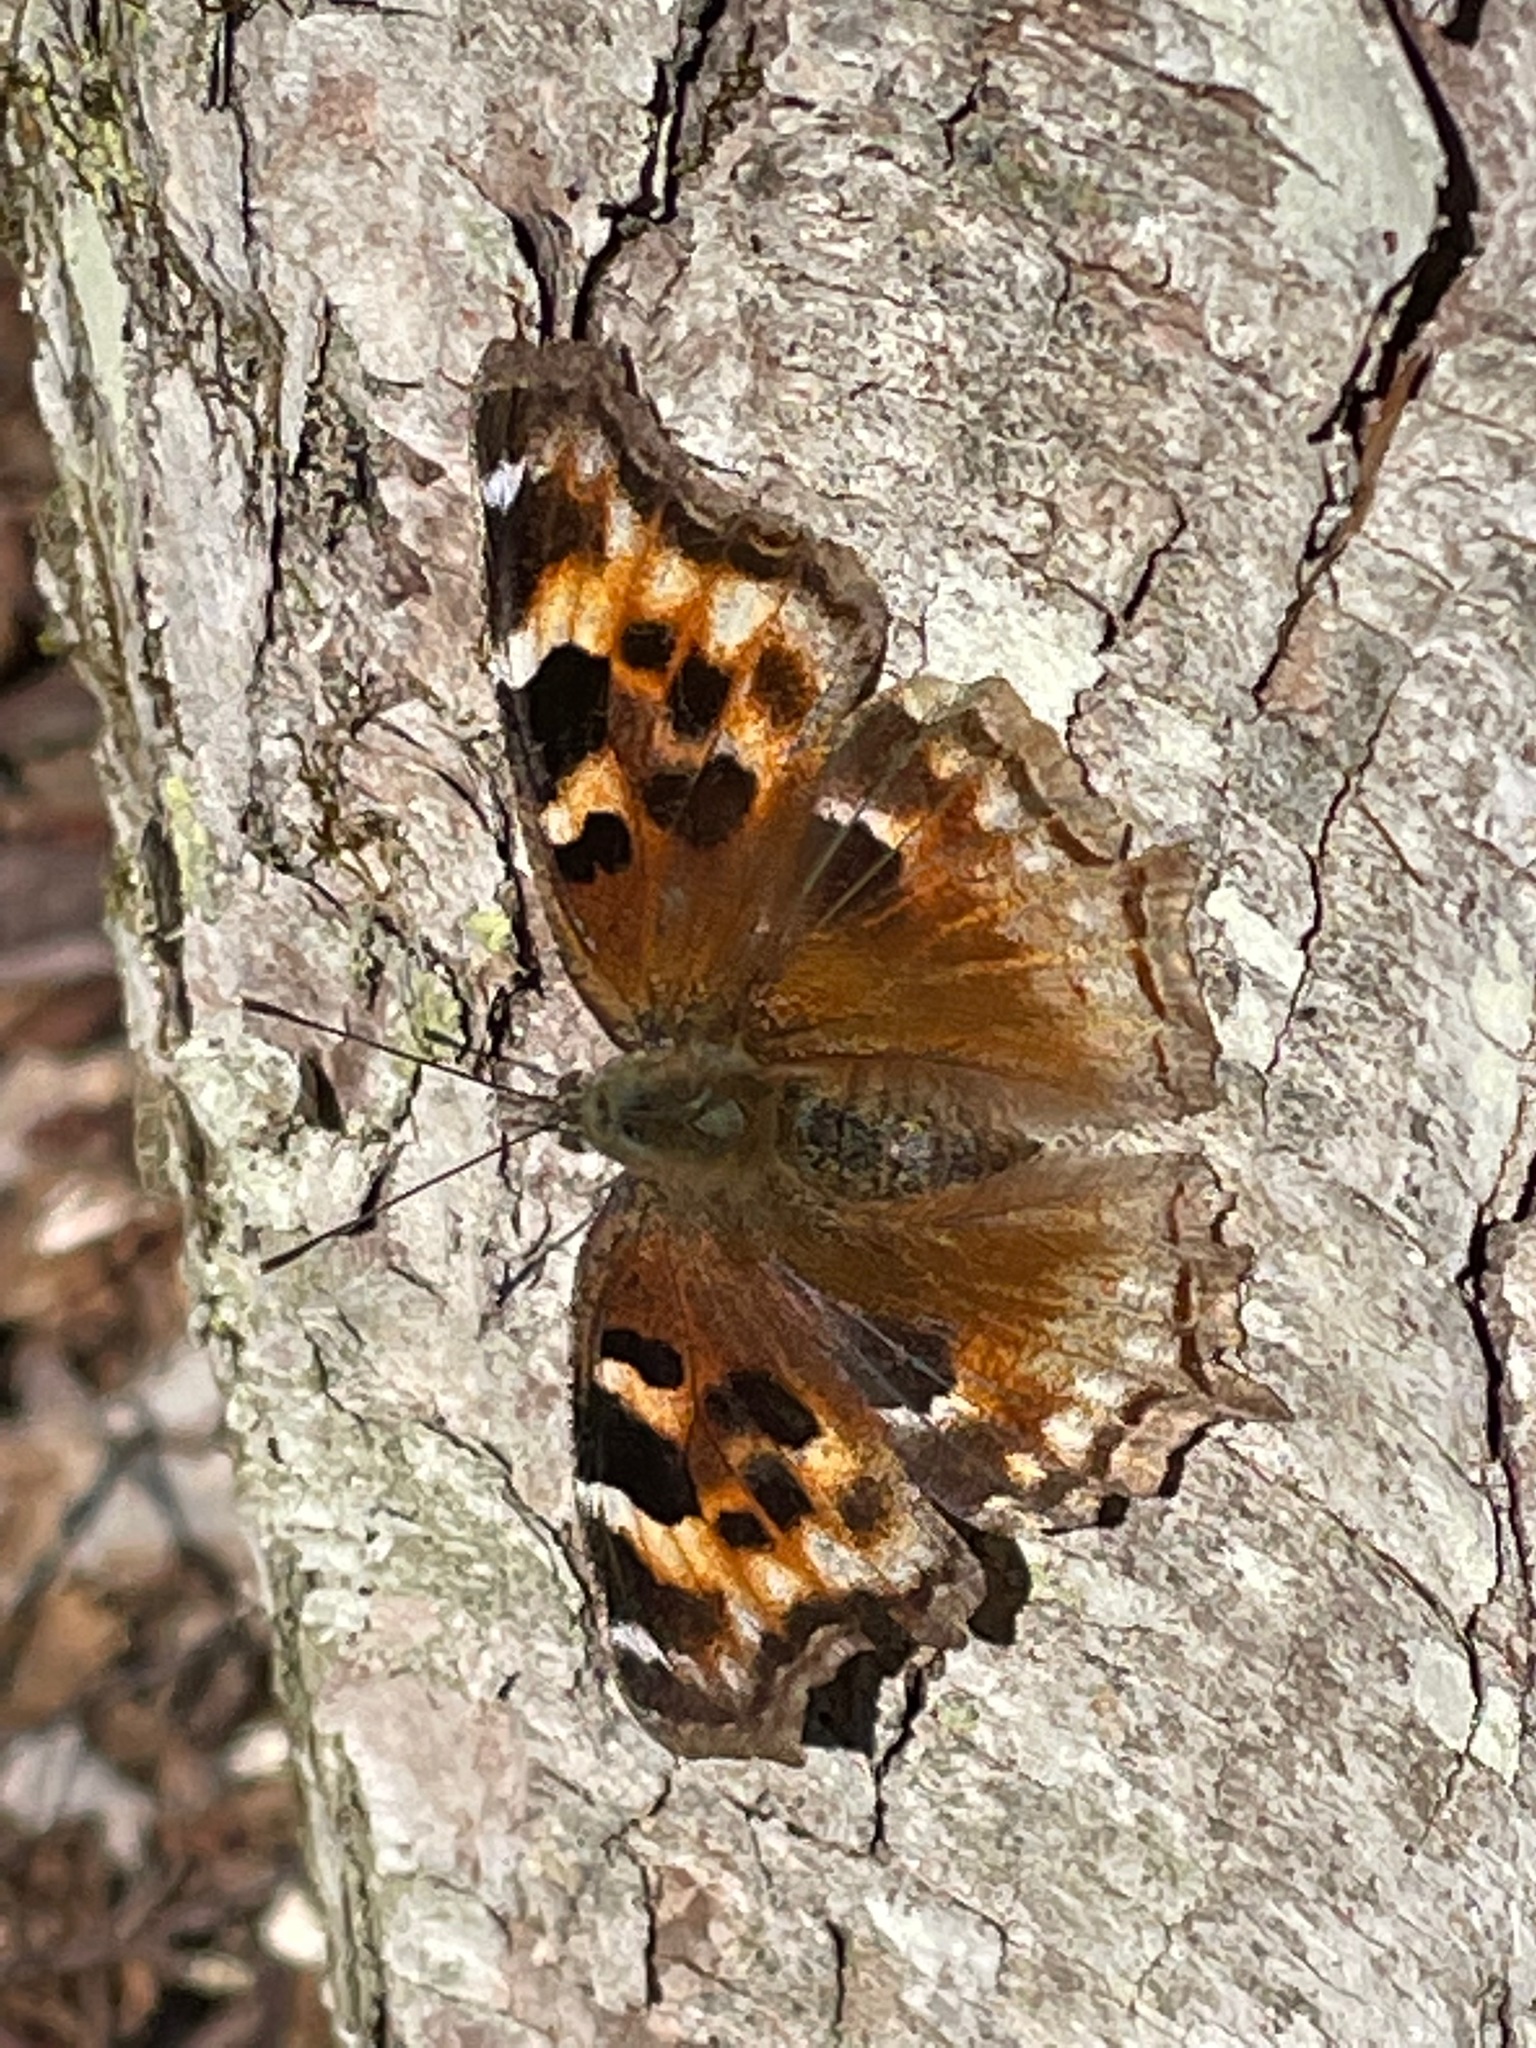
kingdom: Animalia
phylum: Arthropoda
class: Insecta
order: Lepidoptera
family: Nymphalidae
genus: Polygonia
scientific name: Polygonia vaualbum
